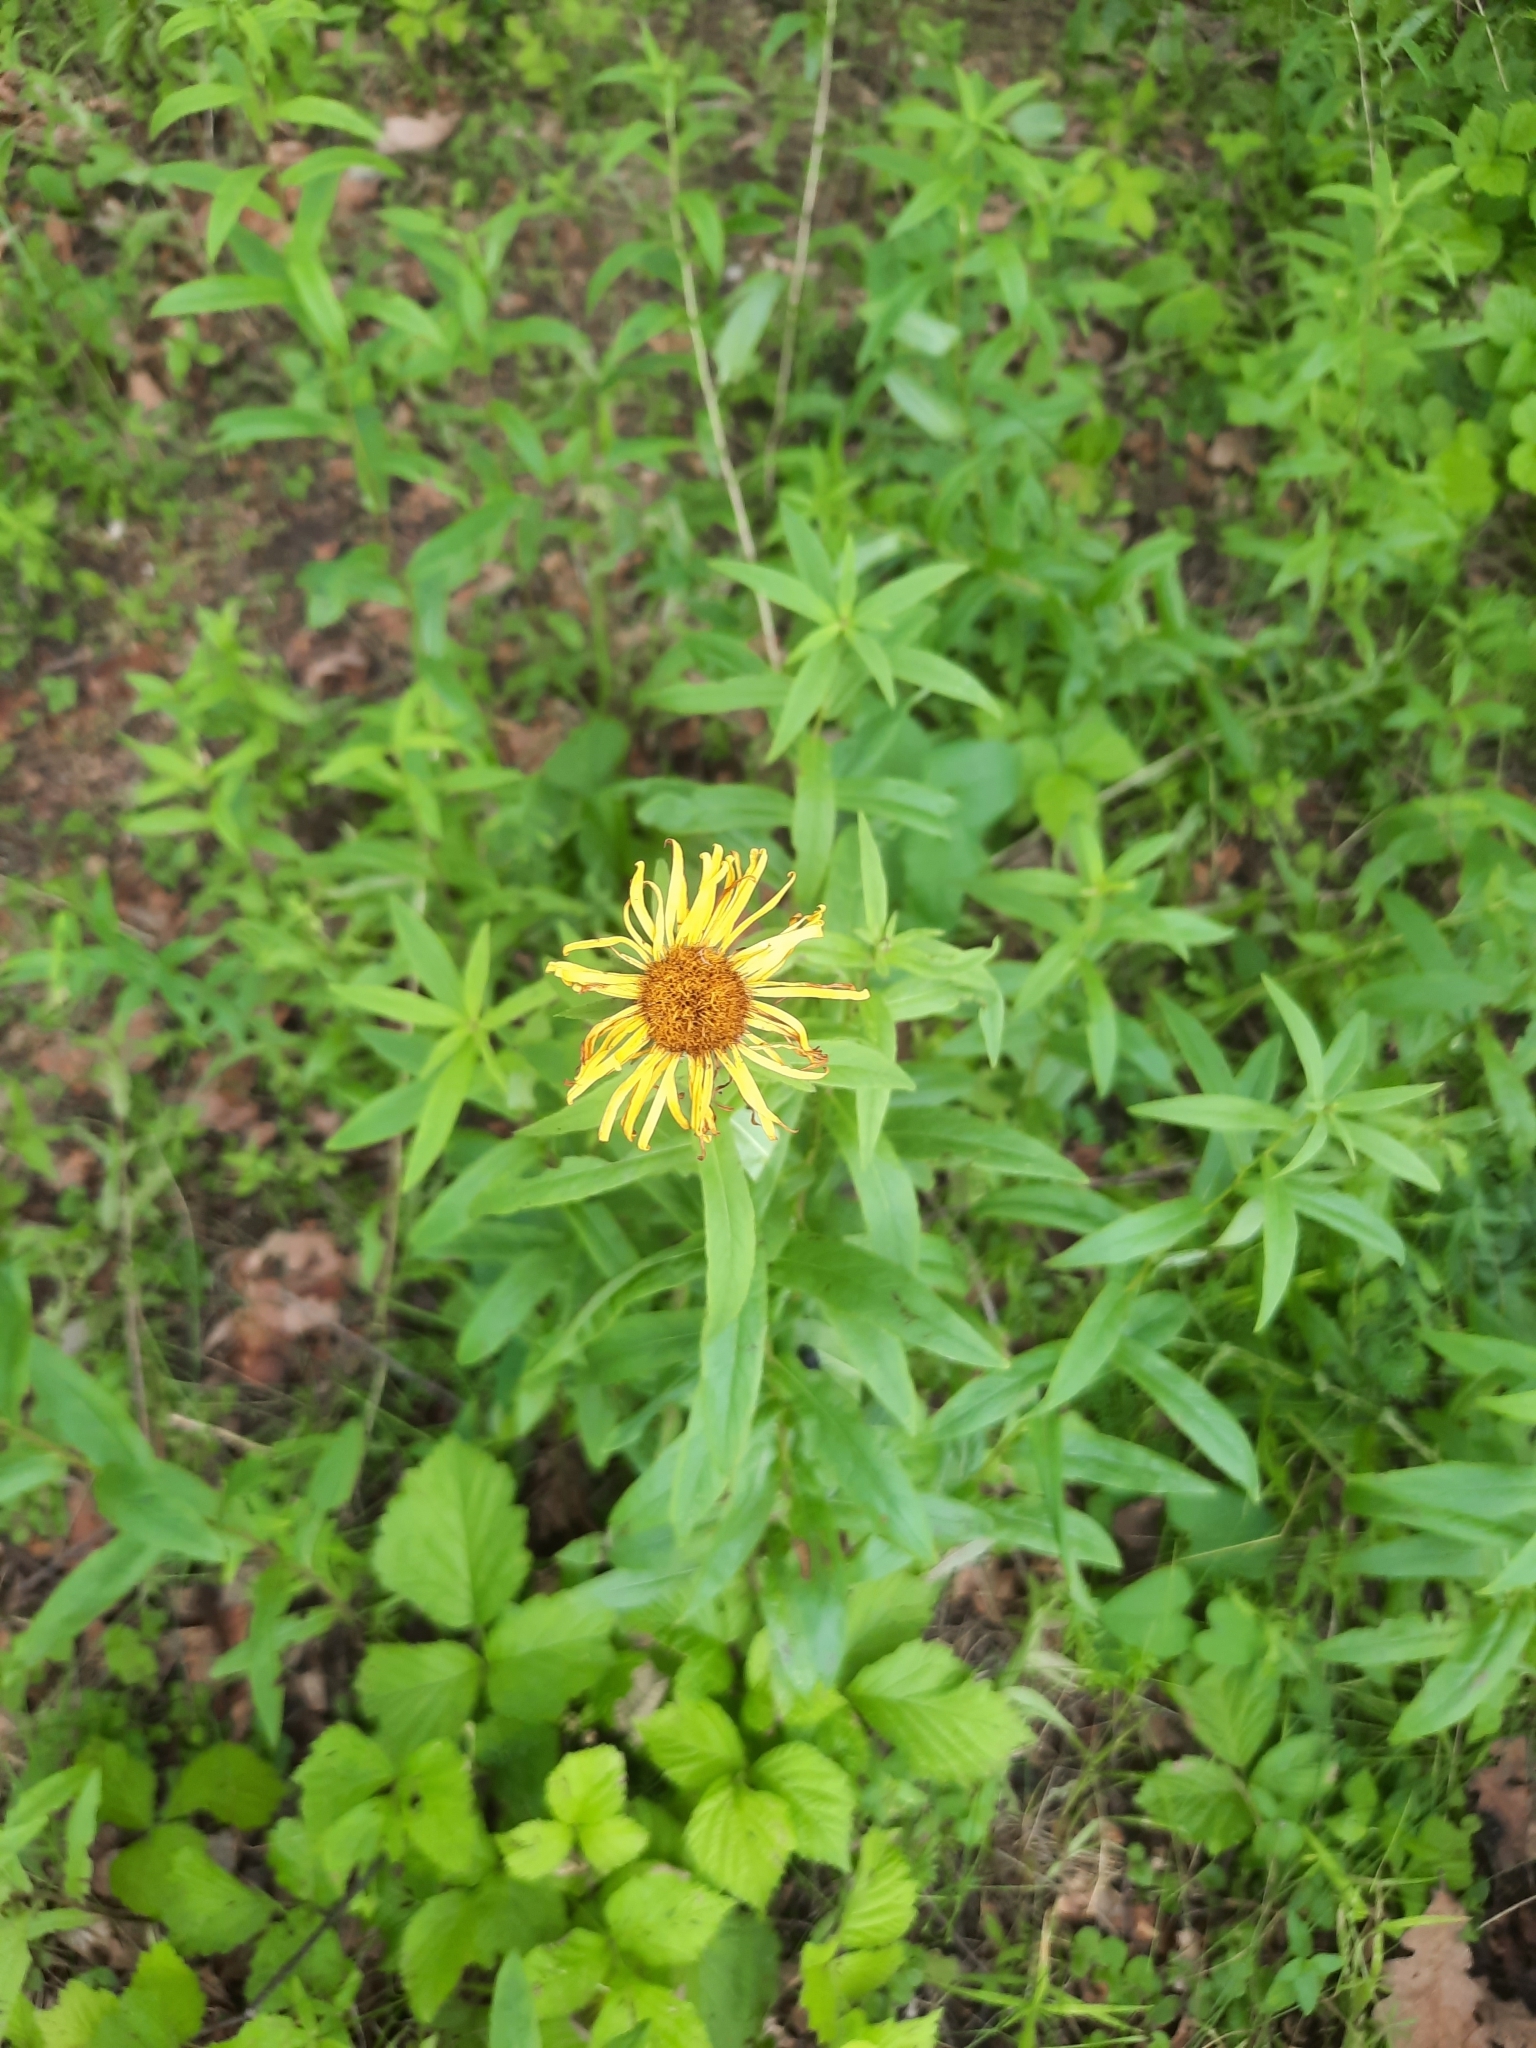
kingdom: Plantae
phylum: Tracheophyta
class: Magnoliopsida
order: Asterales
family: Asteraceae
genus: Pentanema
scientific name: Pentanema salicinum
